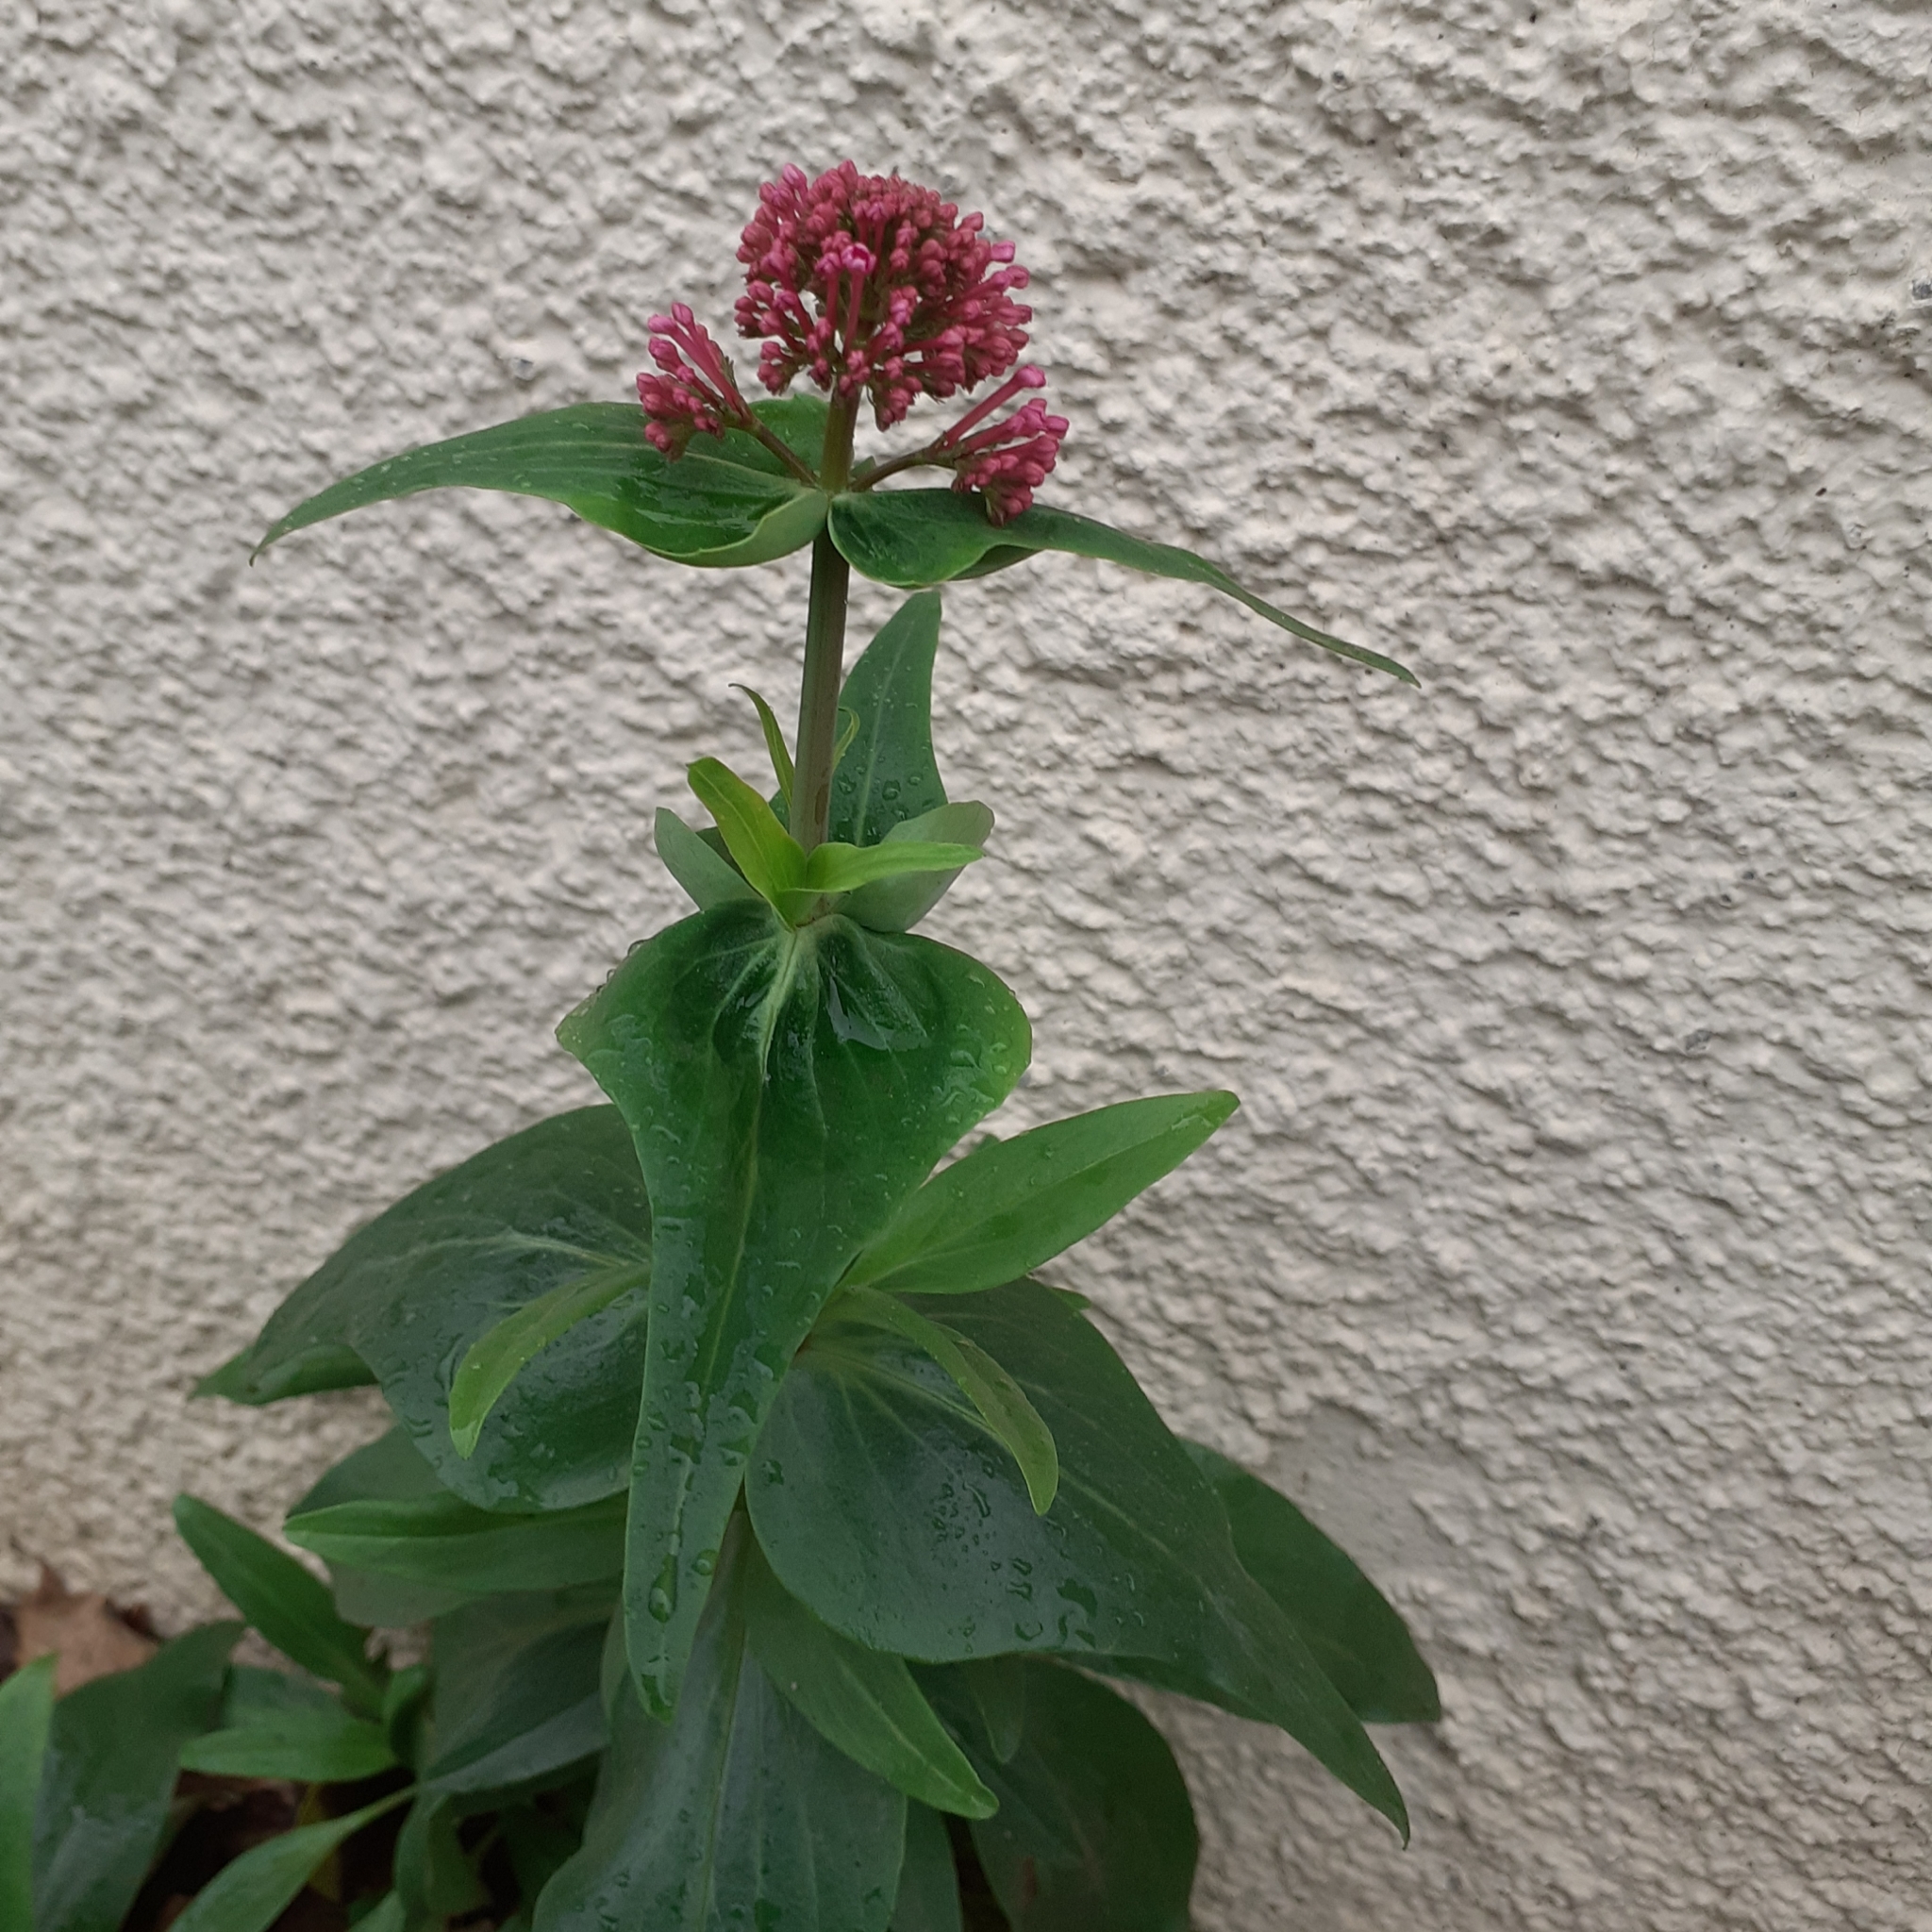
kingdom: Plantae
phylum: Tracheophyta
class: Magnoliopsida
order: Dipsacales
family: Caprifoliaceae
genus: Centranthus
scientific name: Centranthus ruber
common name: Red valerian
